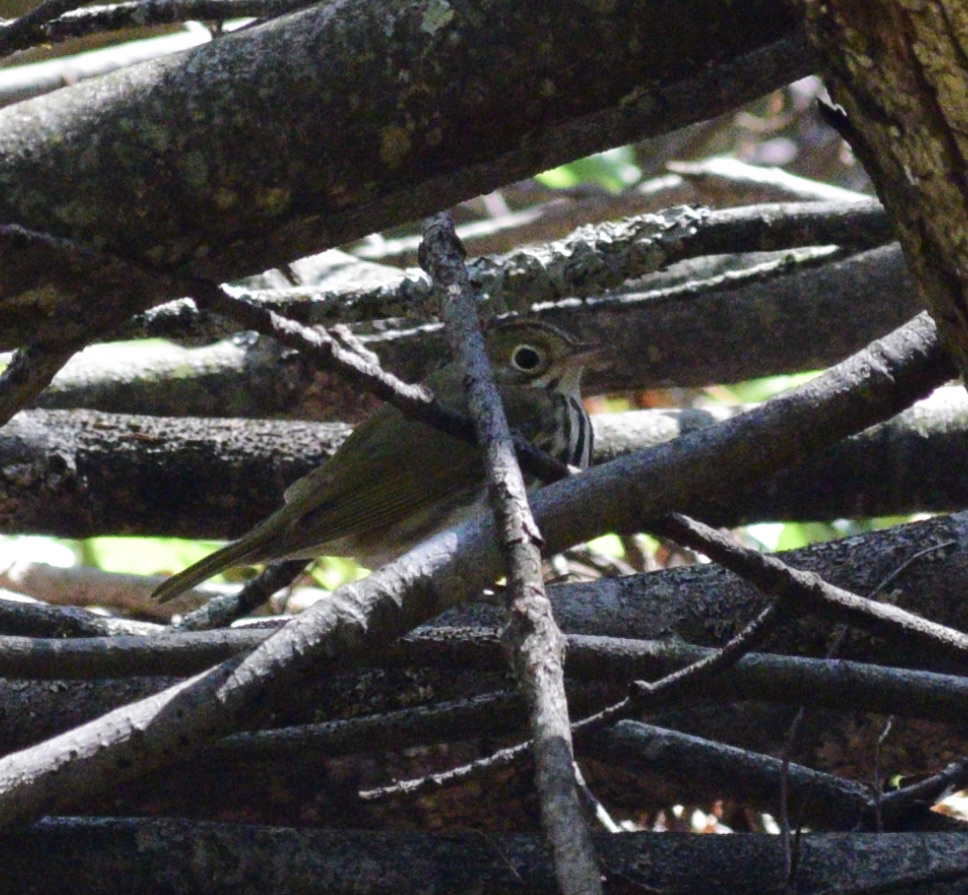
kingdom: Animalia
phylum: Chordata
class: Aves
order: Passeriformes
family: Parulidae
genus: Seiurus
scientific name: Seiurus aurocapilla
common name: Ovenbird
